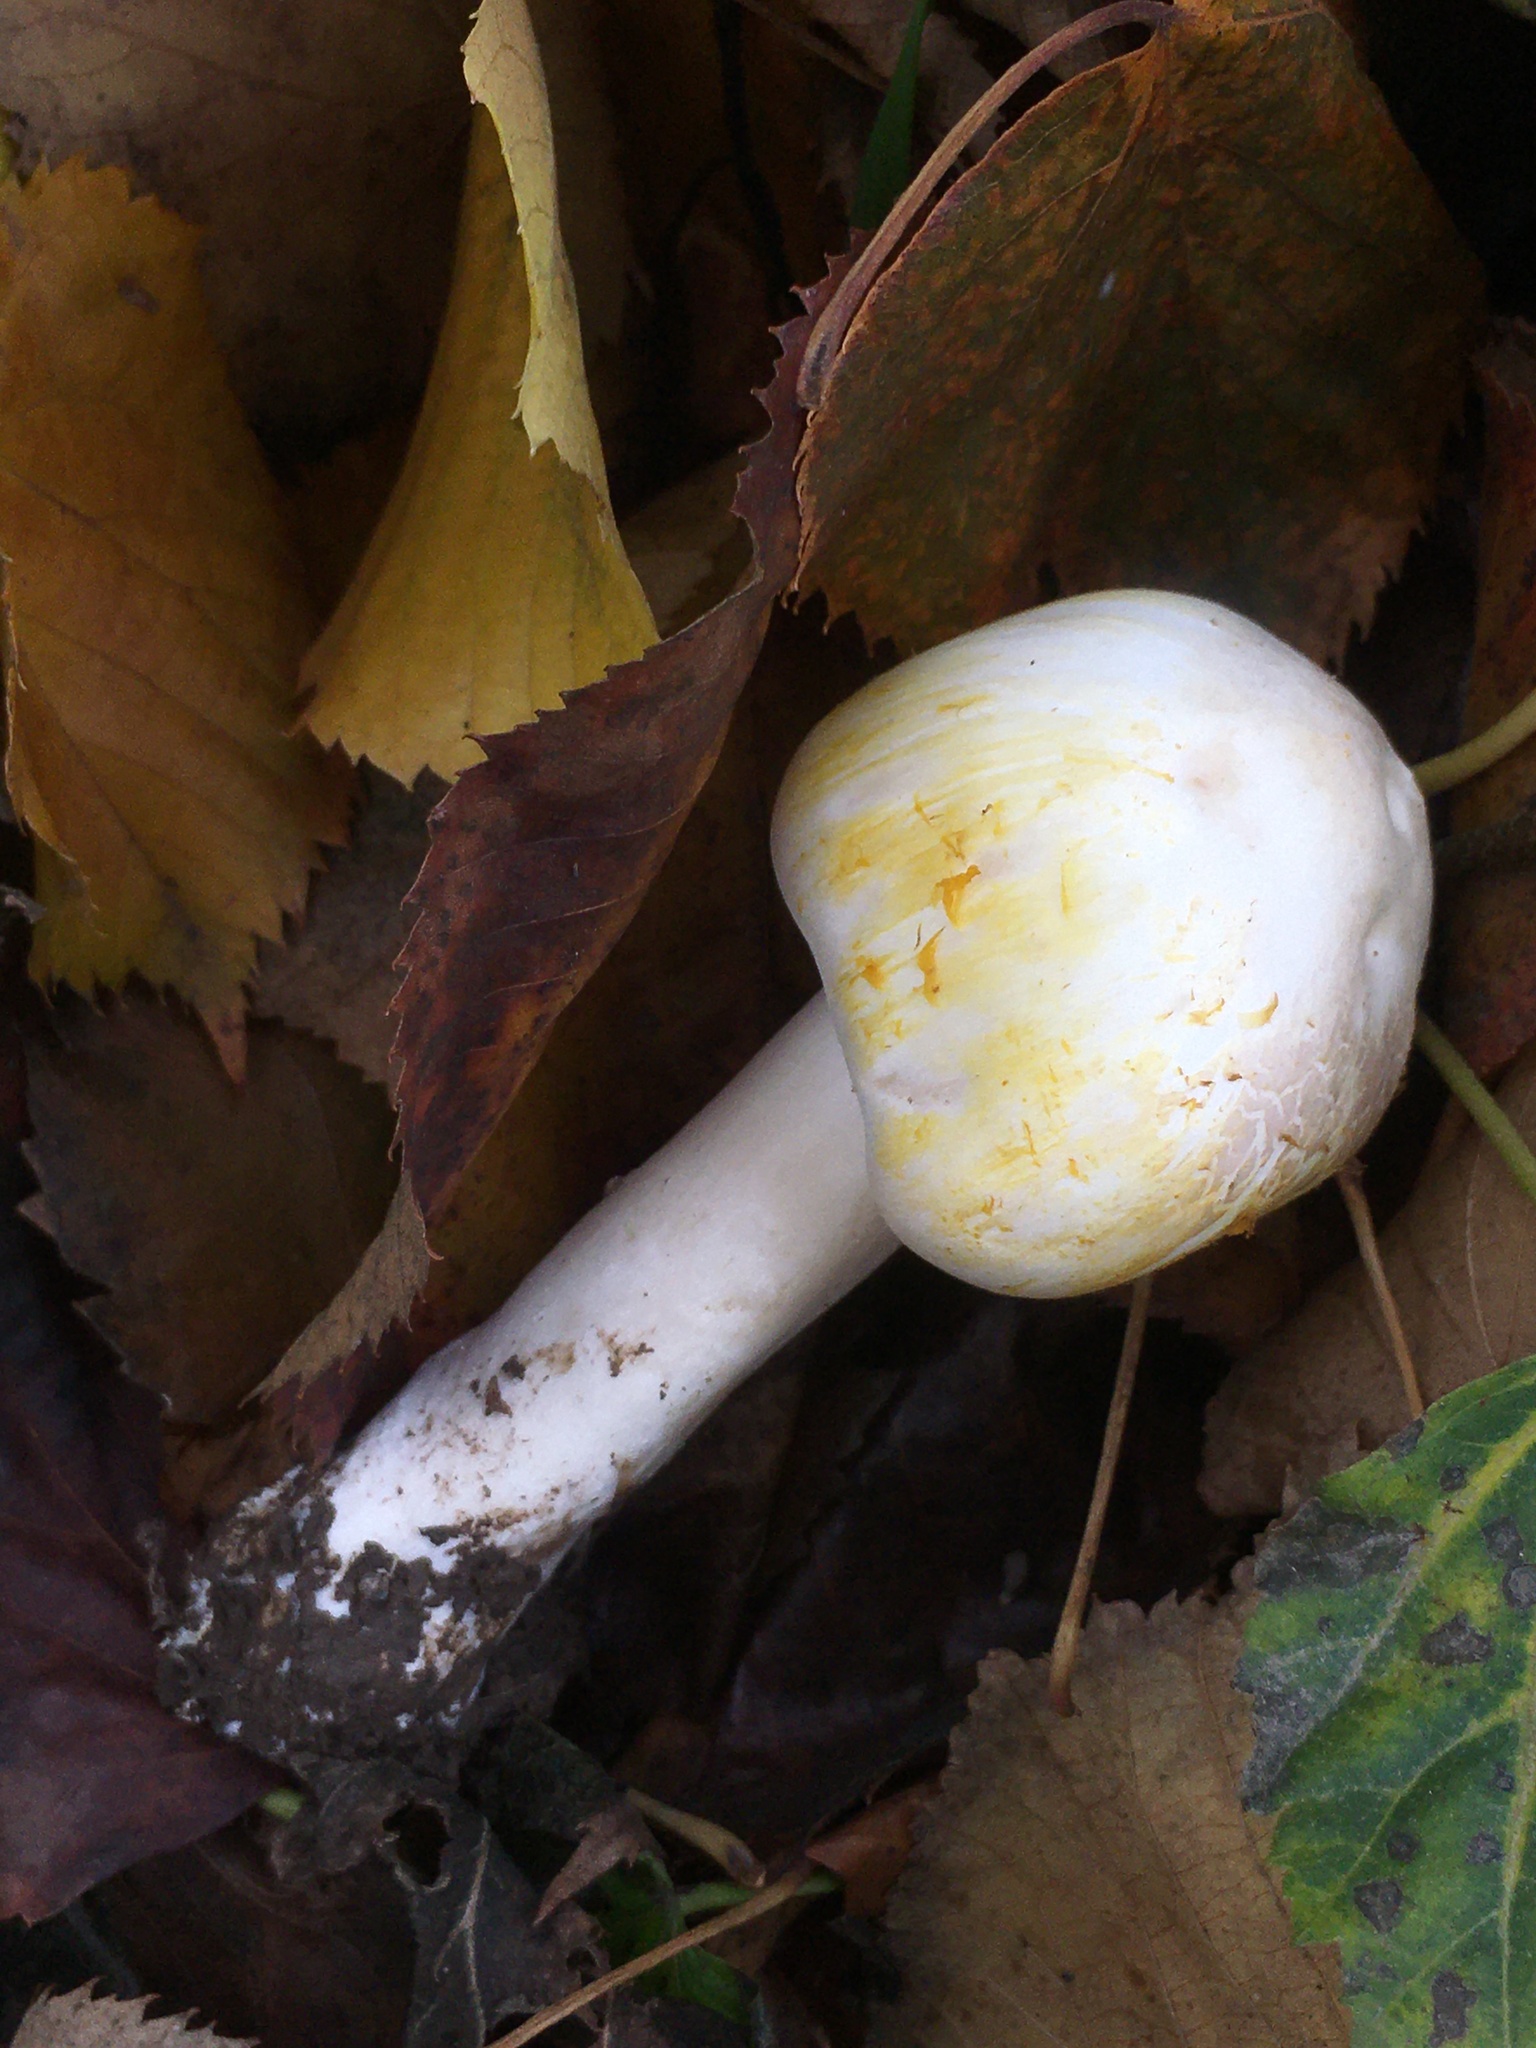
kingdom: Fungi
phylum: Basidiomycota
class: Agaricomycetes
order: Agaricales
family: Agaricaceae
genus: Agaricus
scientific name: Agaricus xanthodermus
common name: Yellow stainer
